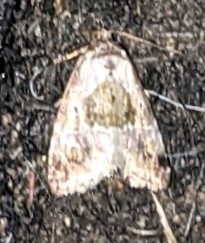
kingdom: Animalia
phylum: Arthropoda
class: Insecta
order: Lepidoptera
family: Noctuidae
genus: Maliattha
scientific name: Maliattha synochitis
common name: Black-dotted glyph
